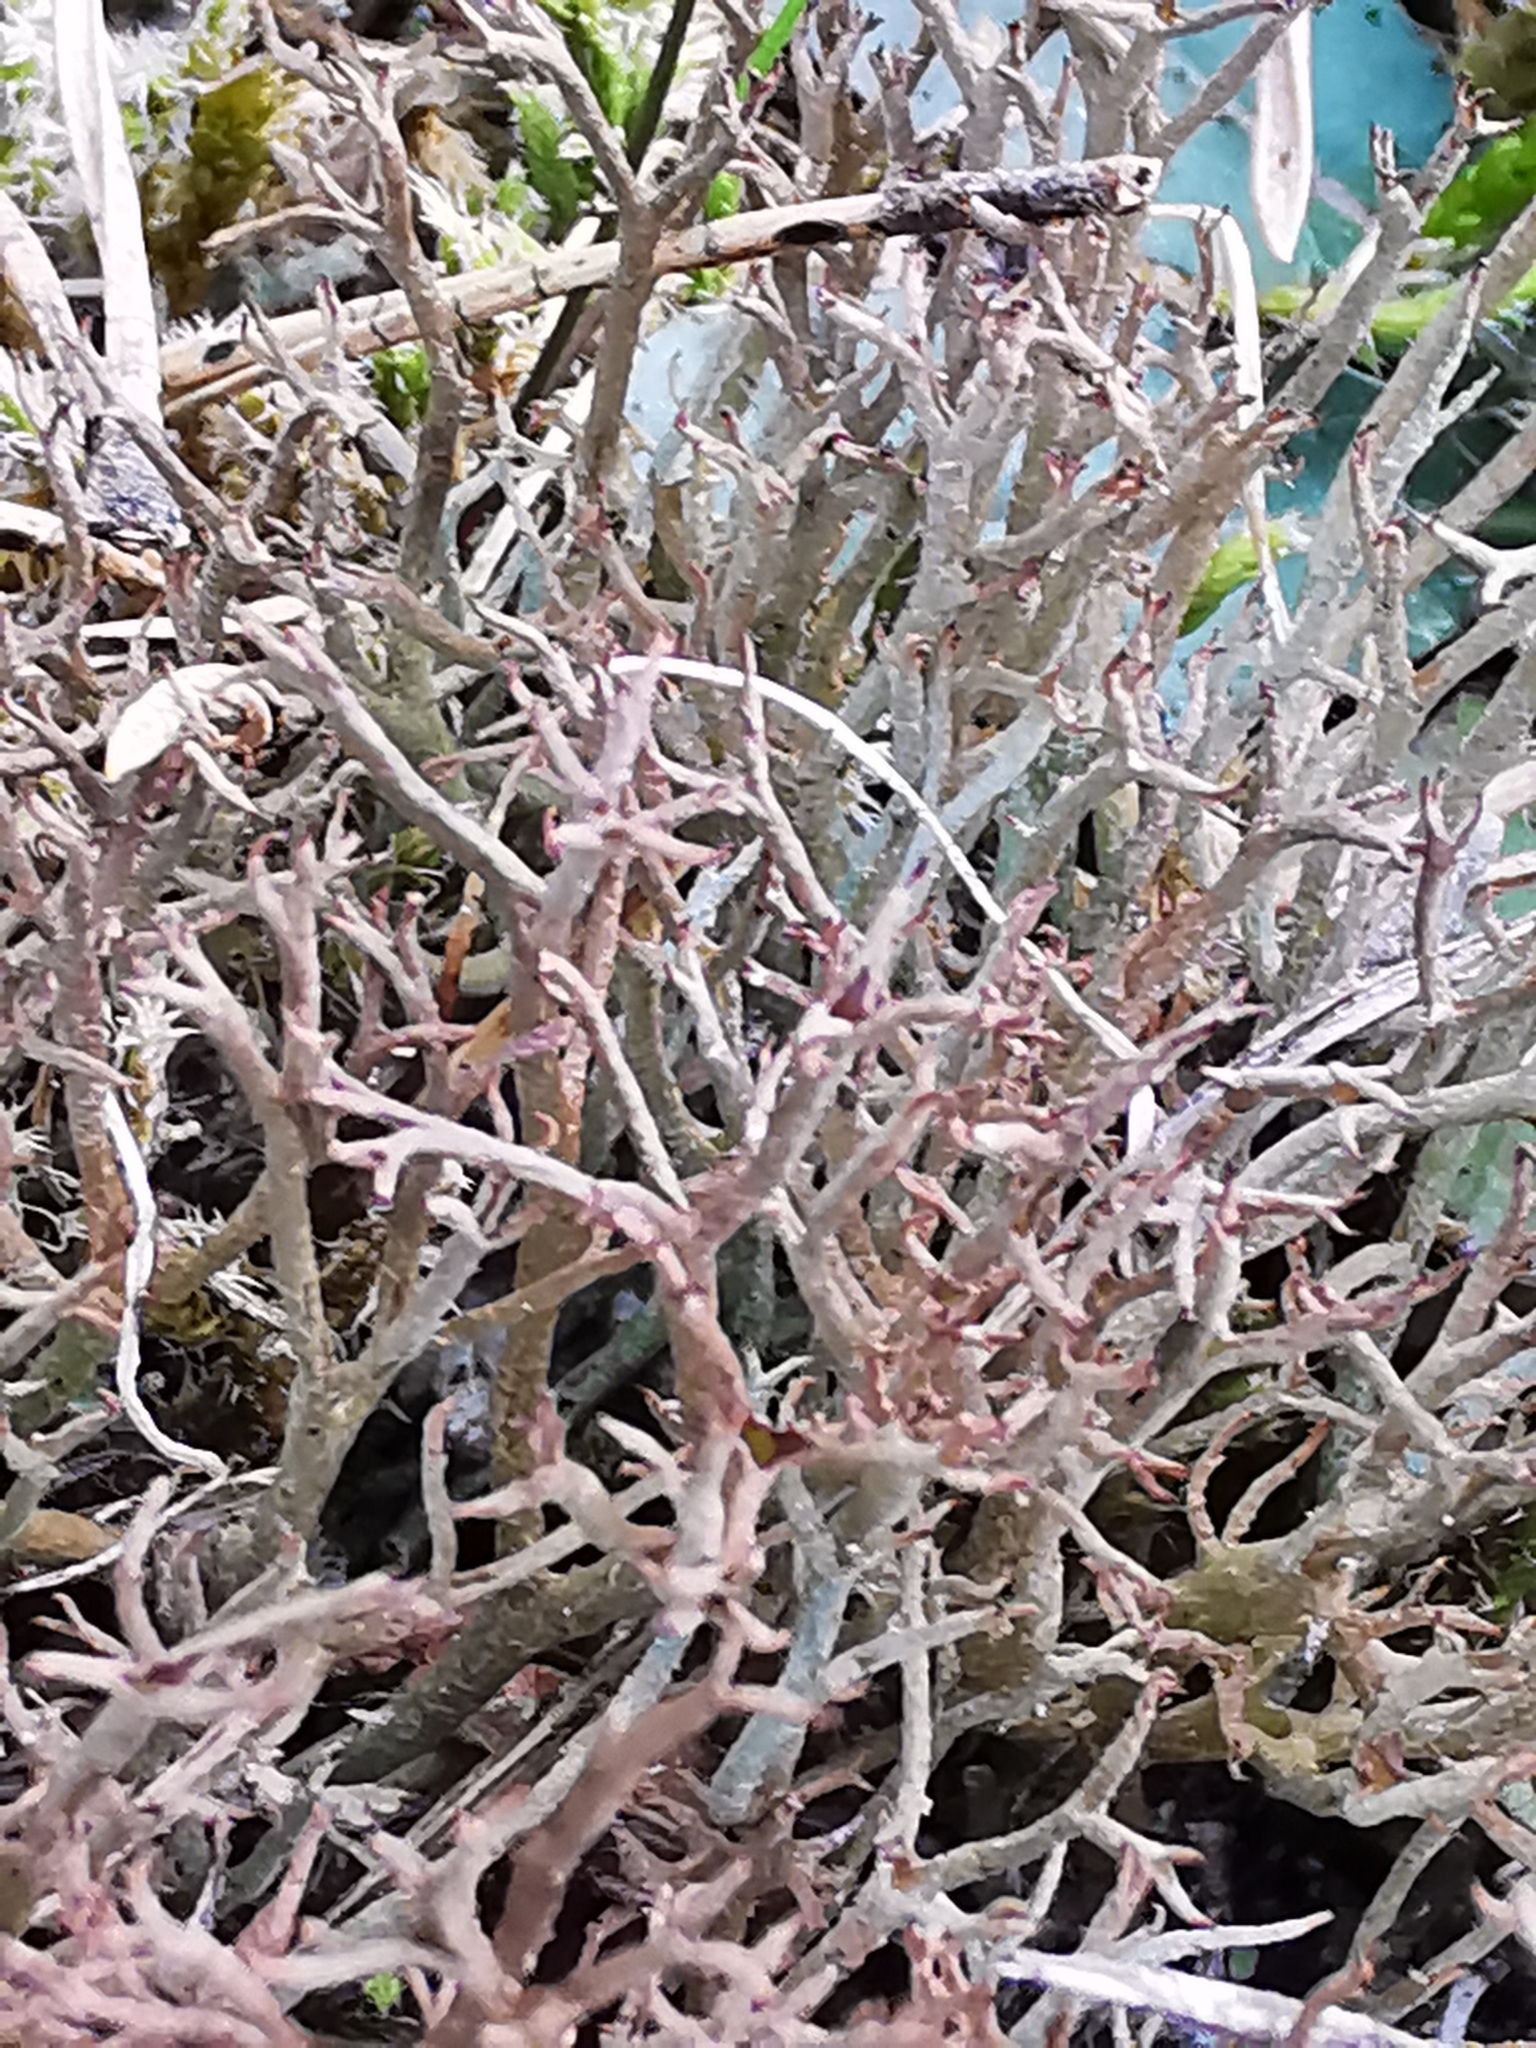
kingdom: Fungi
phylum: Ascomycota
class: Lecanoromycetes
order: Lecanorales
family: Cladoniaceae
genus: Cladonia
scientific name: Cladonia furcata
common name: Many-forked cladonia
